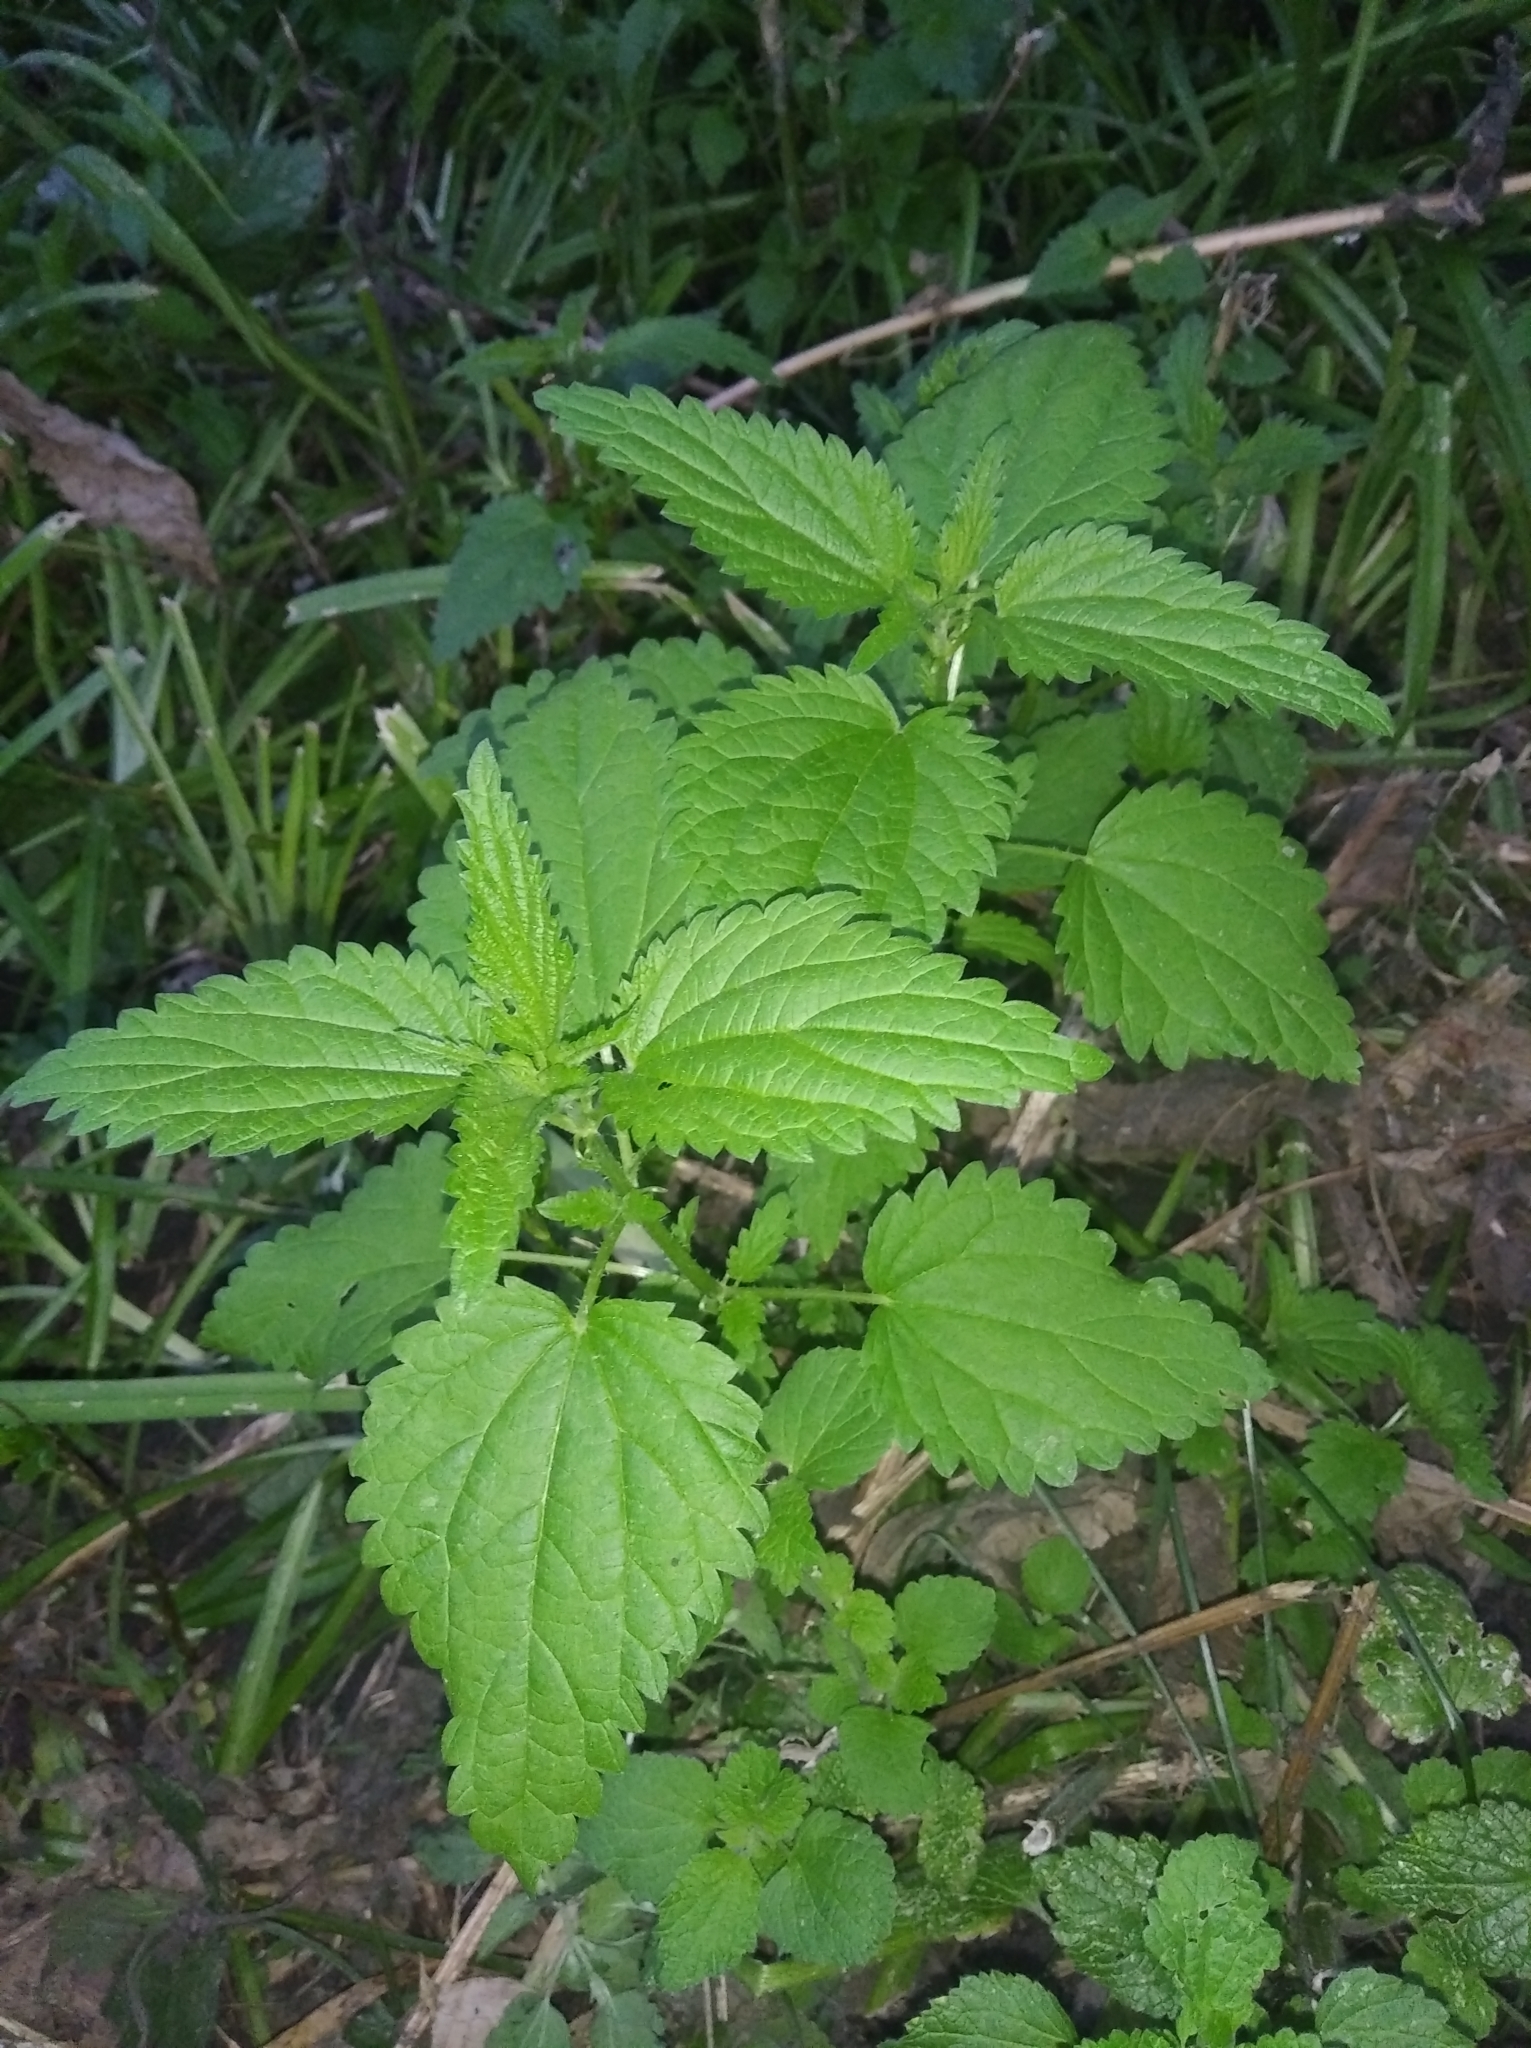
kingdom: Plantae
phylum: Tracheophyta
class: Magnoliopsida
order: Rosales
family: Urticaceae
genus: Urtica
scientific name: Urtica dioica
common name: Common nettle
